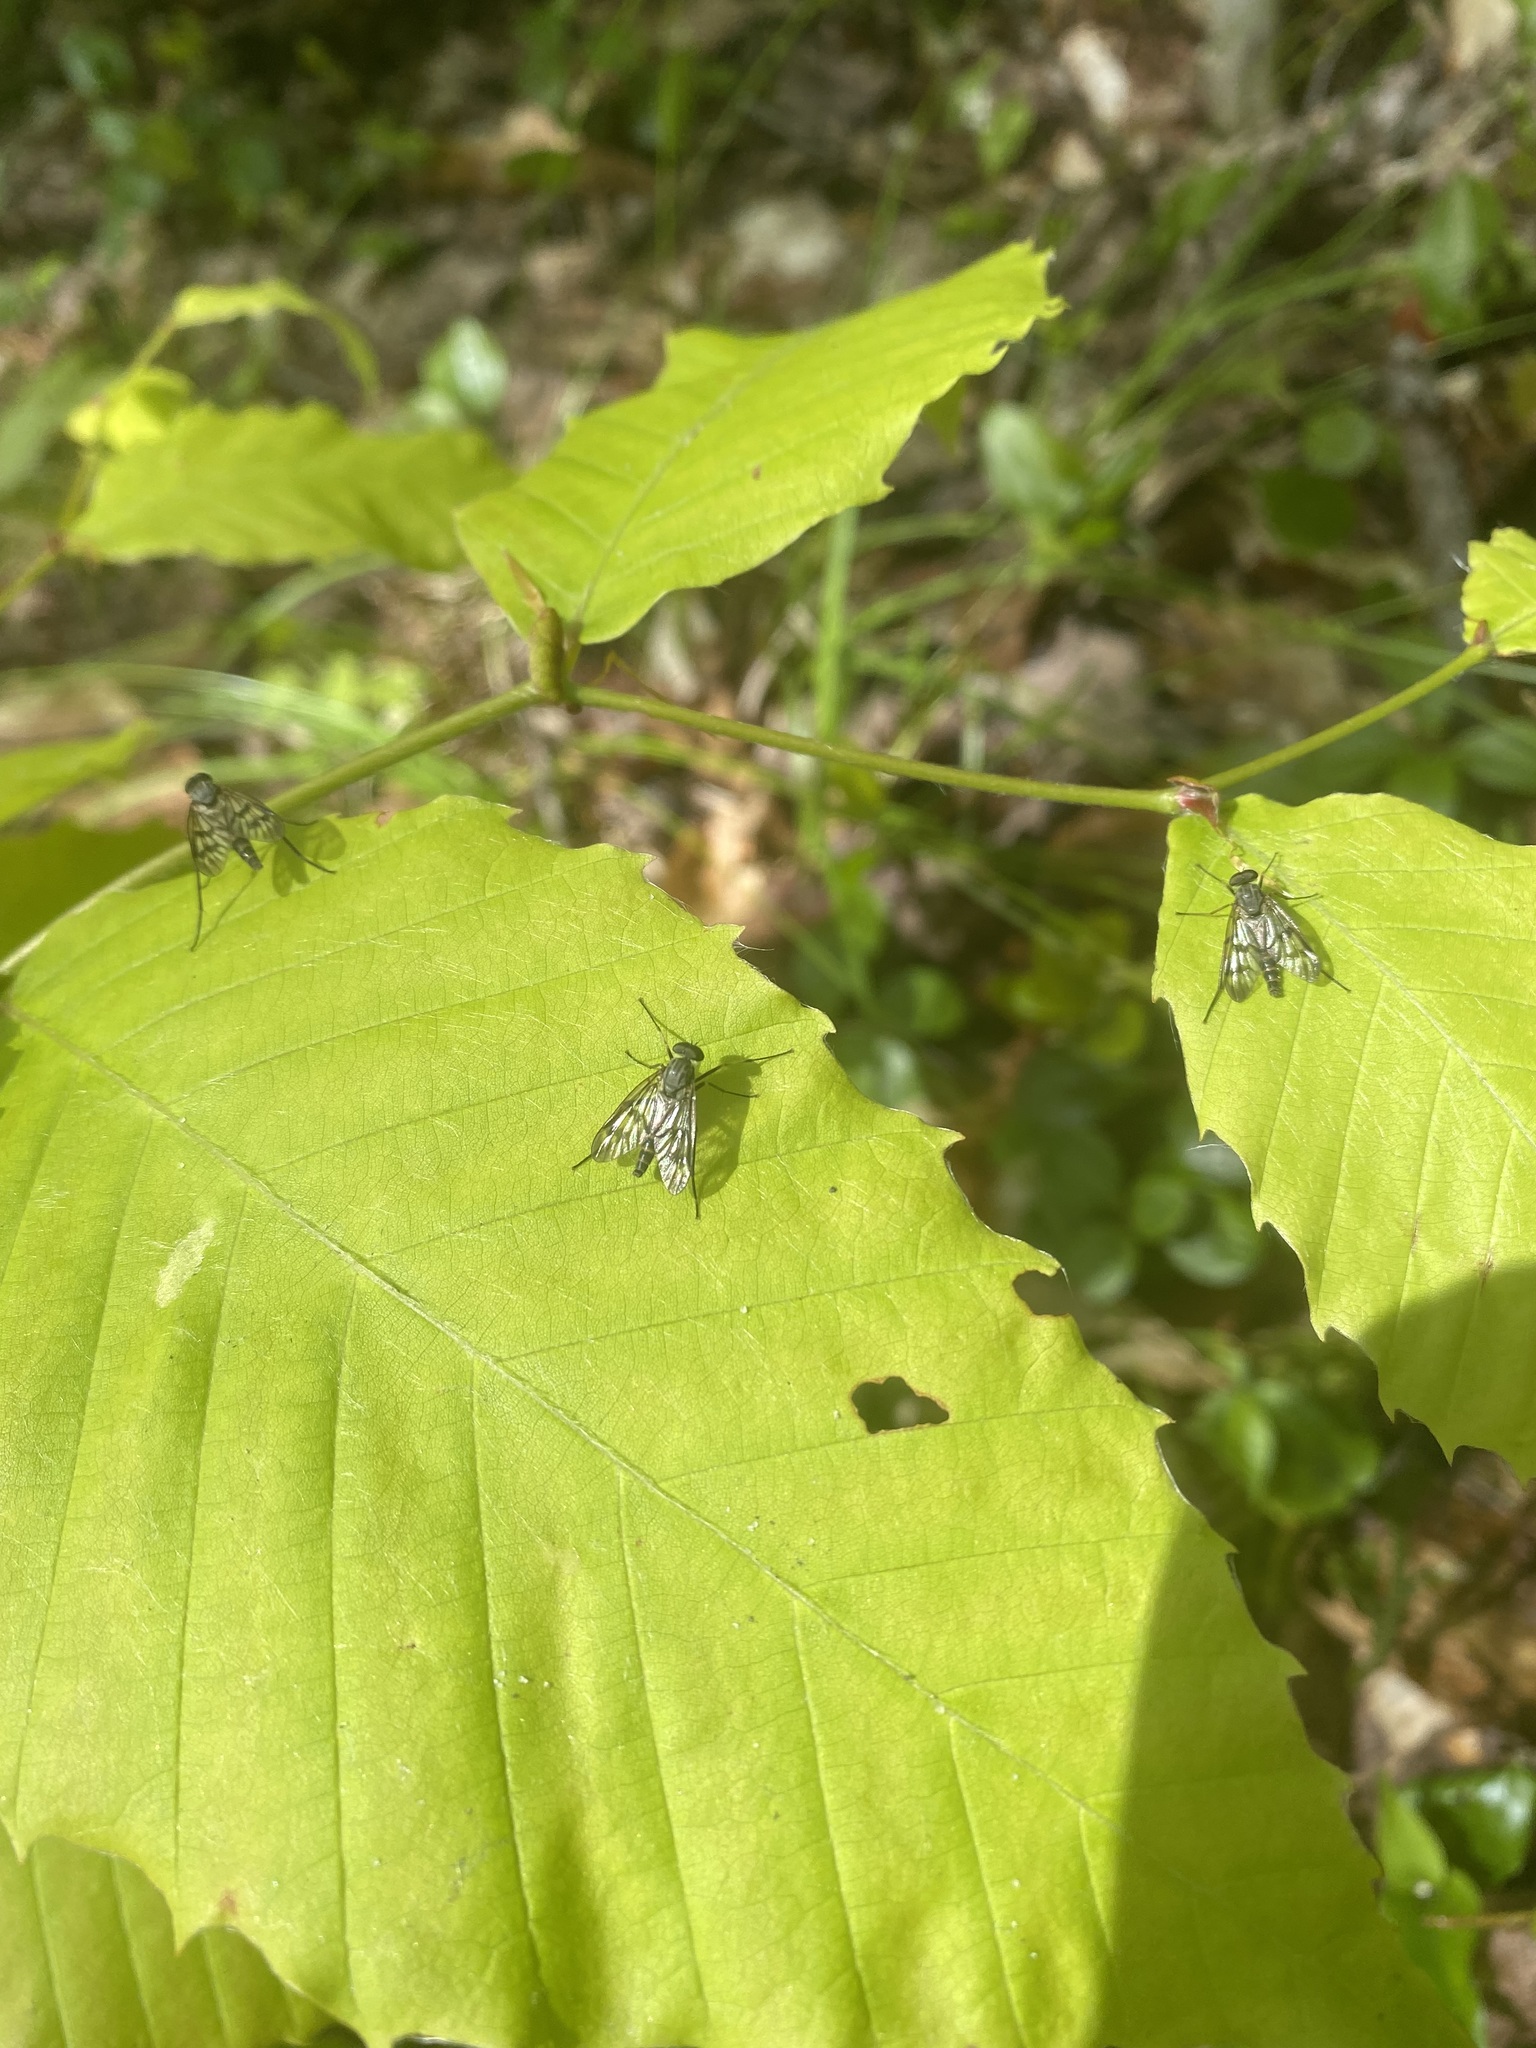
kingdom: Animalia
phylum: Arthropoda
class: Insecta
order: Diptera
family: Rhagionidae
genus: Rhagio
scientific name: Rhagio mystaceus
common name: Common snipe fly
